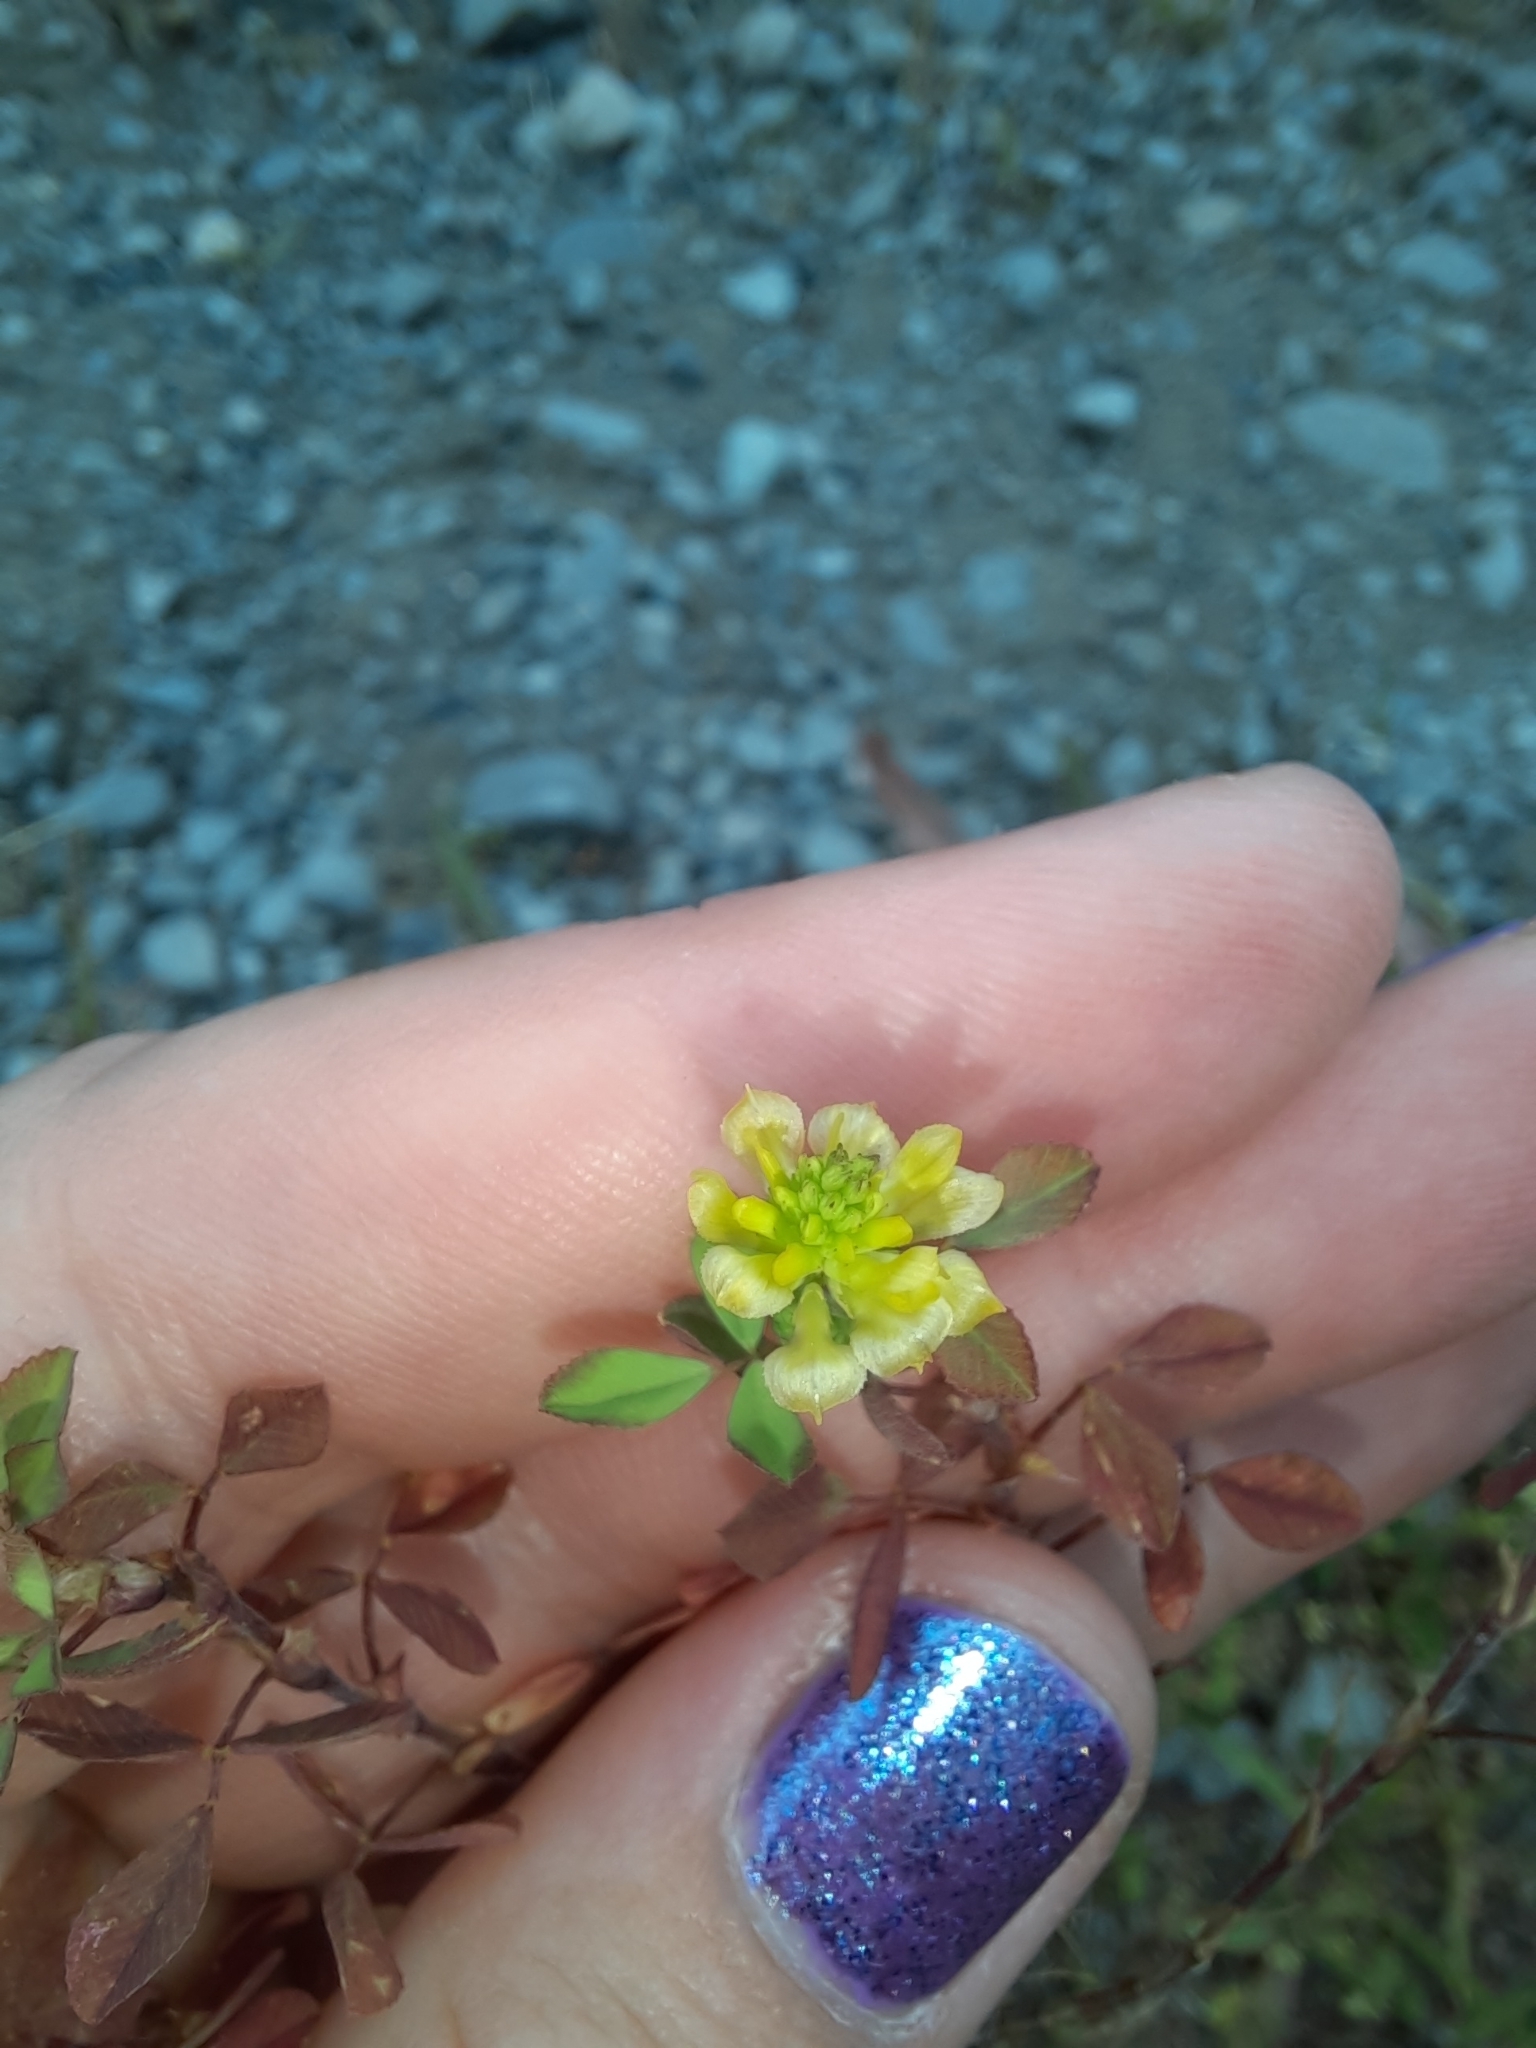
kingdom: Plantae
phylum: Tracheophyta
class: Magnoliopsida
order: Fabales
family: Fabaceae
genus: Trifolium
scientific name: Trifolium campestre
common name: Field clover
